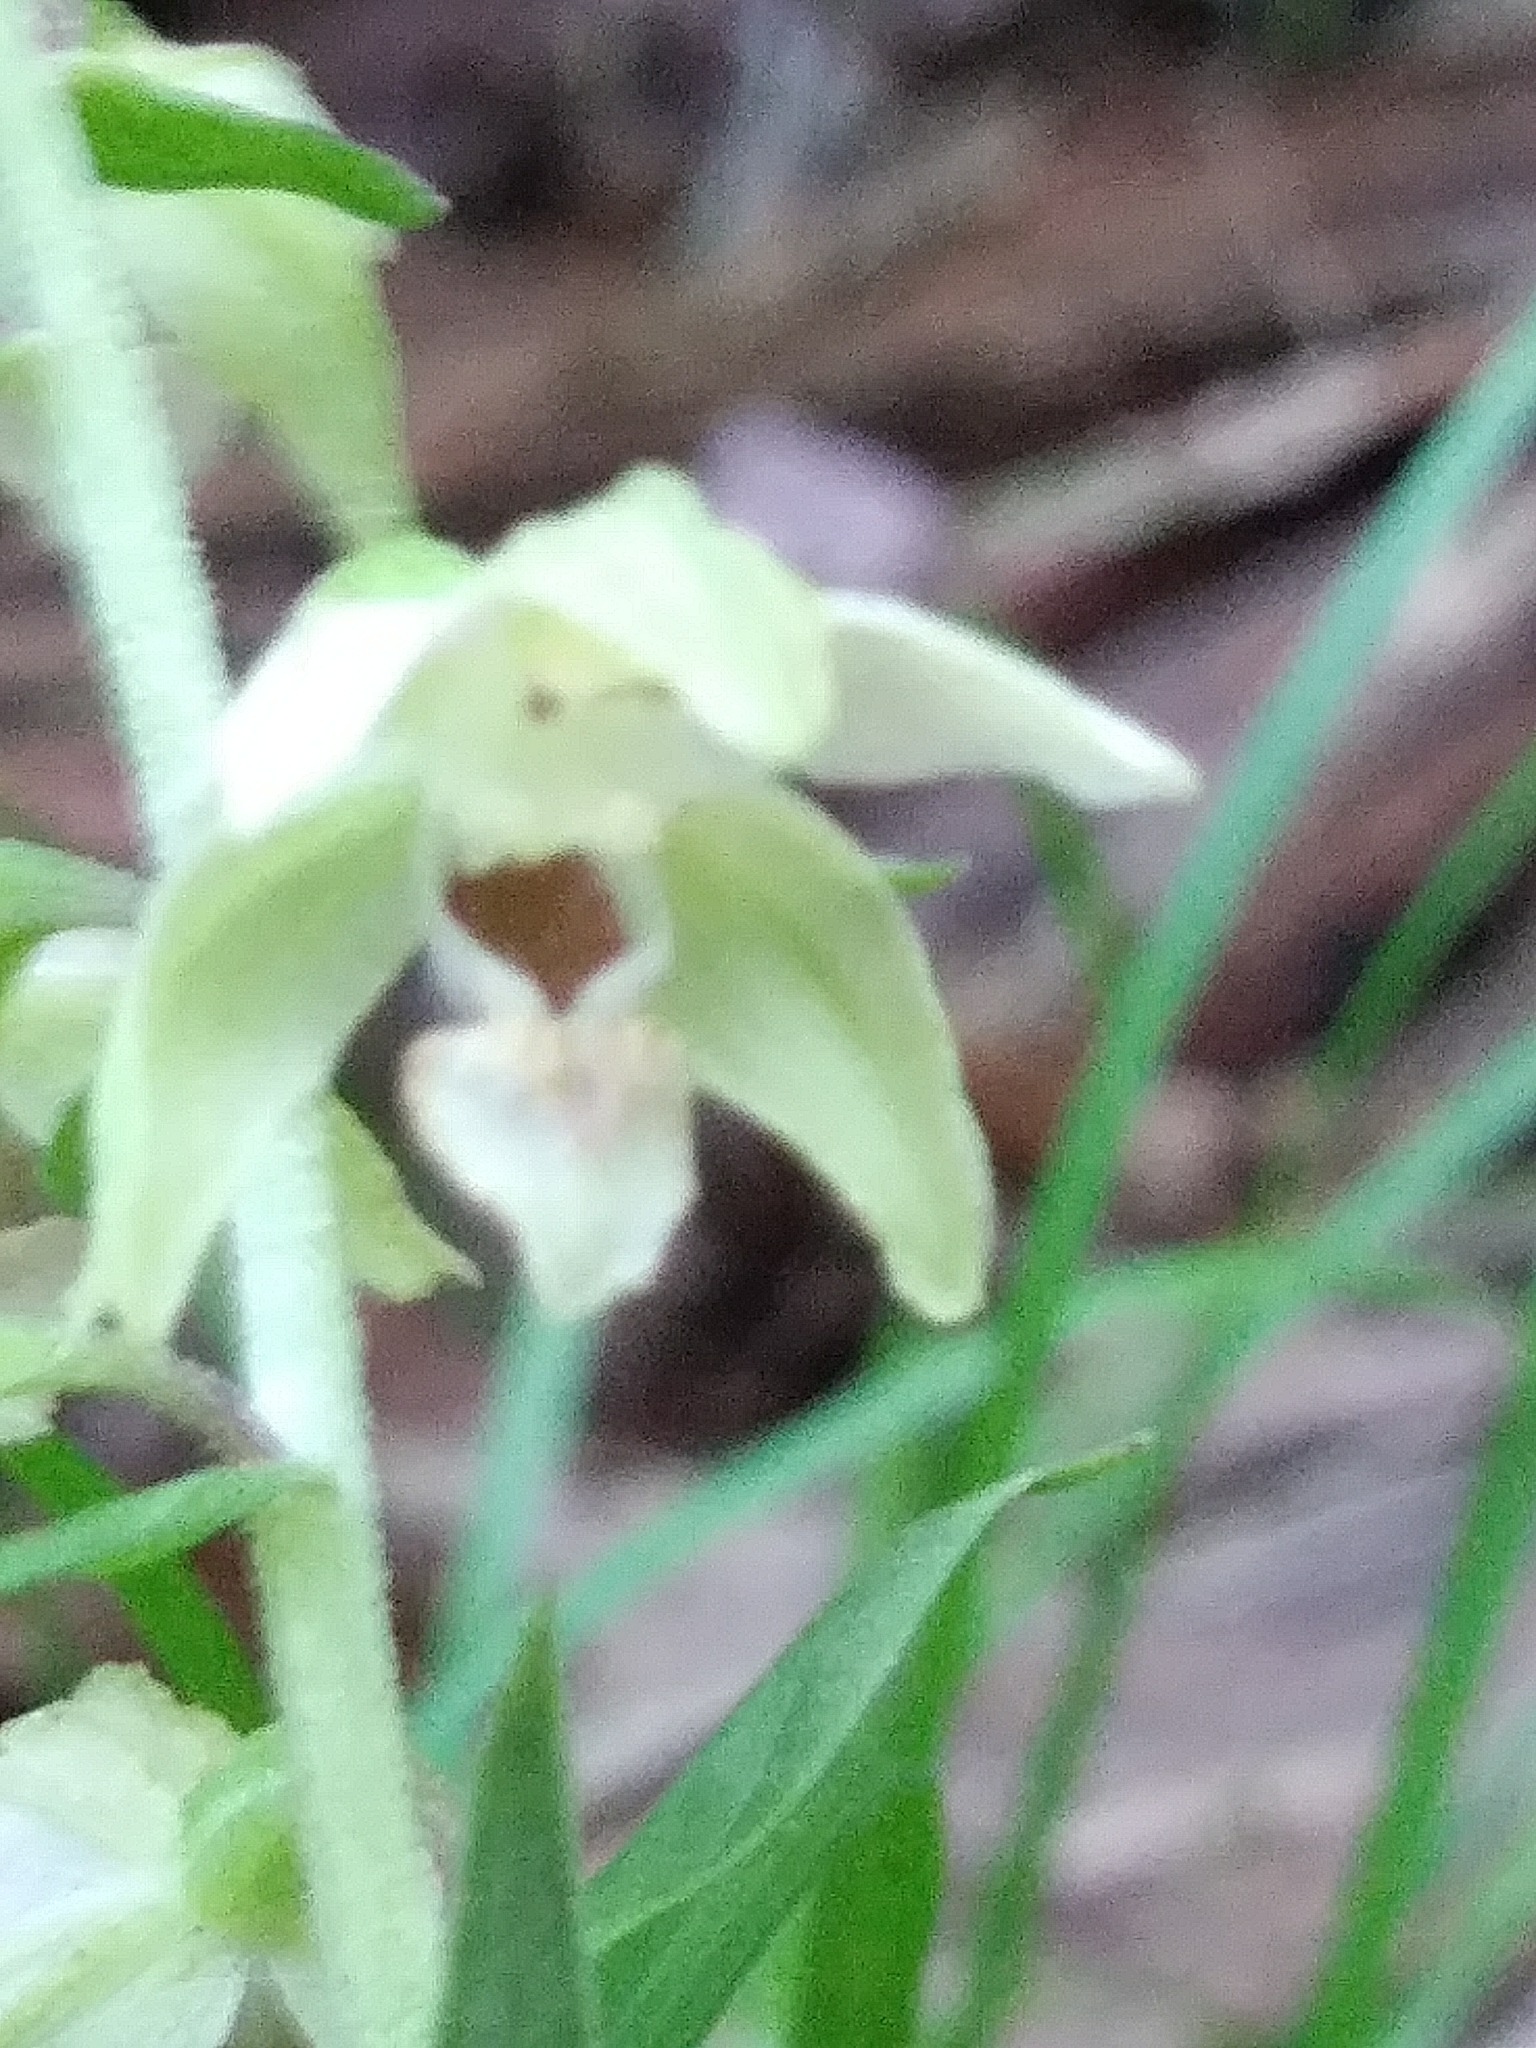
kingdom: Plantae
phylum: Tracheophyta
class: Liliopsida
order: Asparagales
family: Orchidaceae
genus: Epipactis
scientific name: Epipactis helleborine
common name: Broad-leaved helleborine
